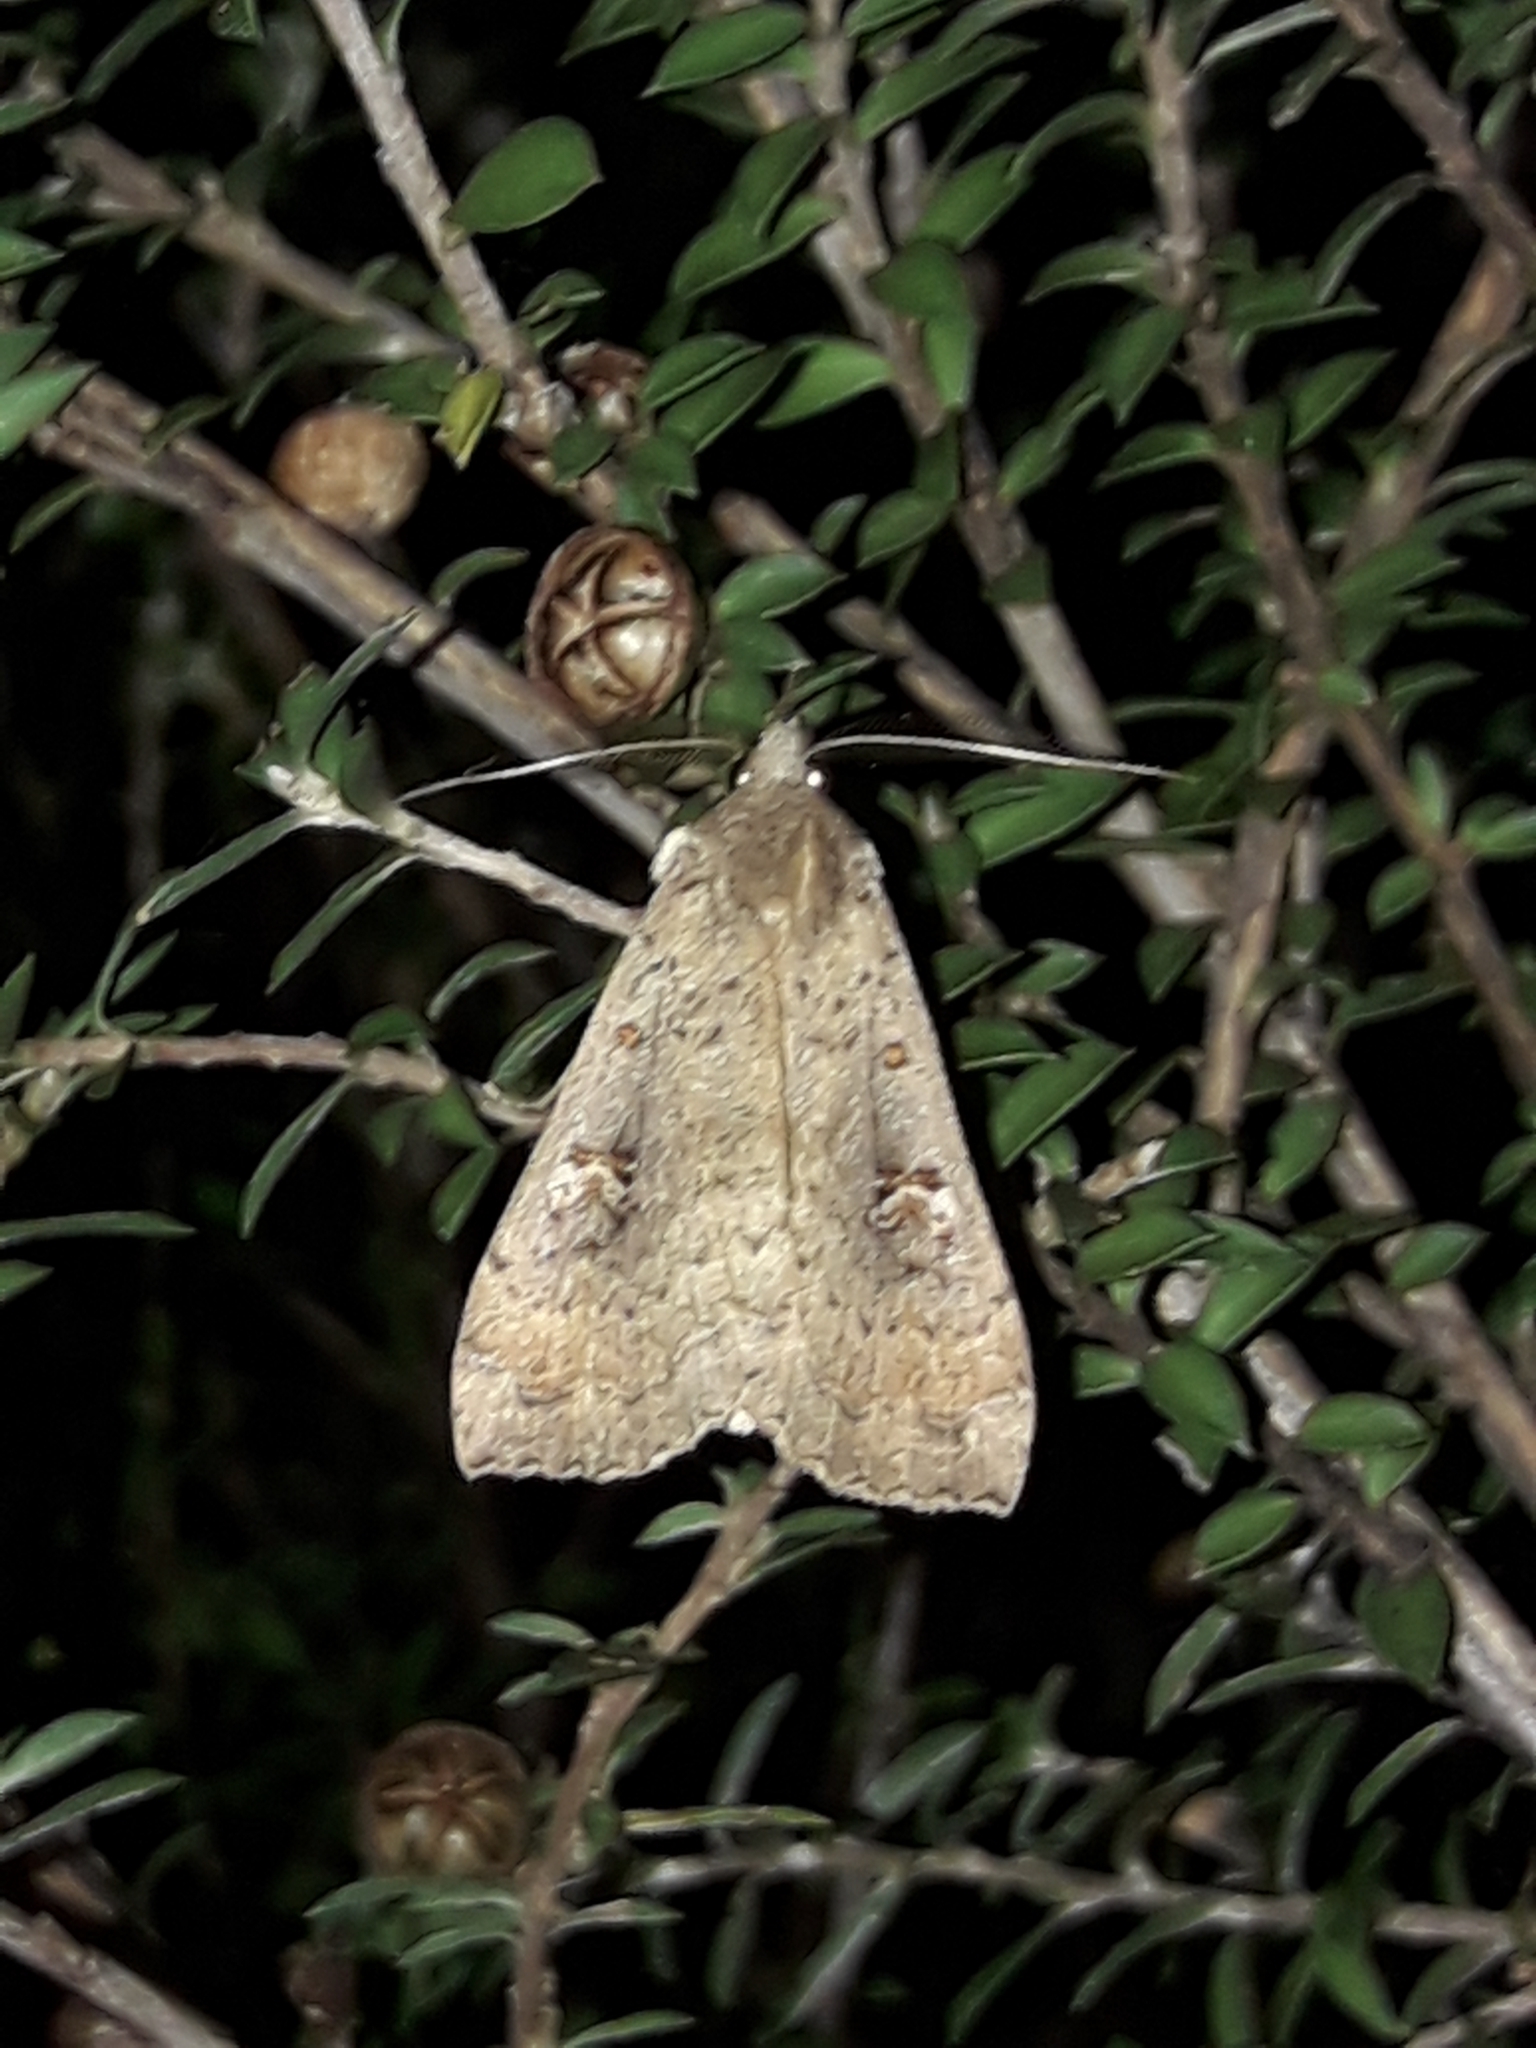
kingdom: Animalia
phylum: Arthropoda
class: Insecta
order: Lepidoptera
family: Erebidae
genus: Rhapsa
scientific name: Rhapsa scotosialis
